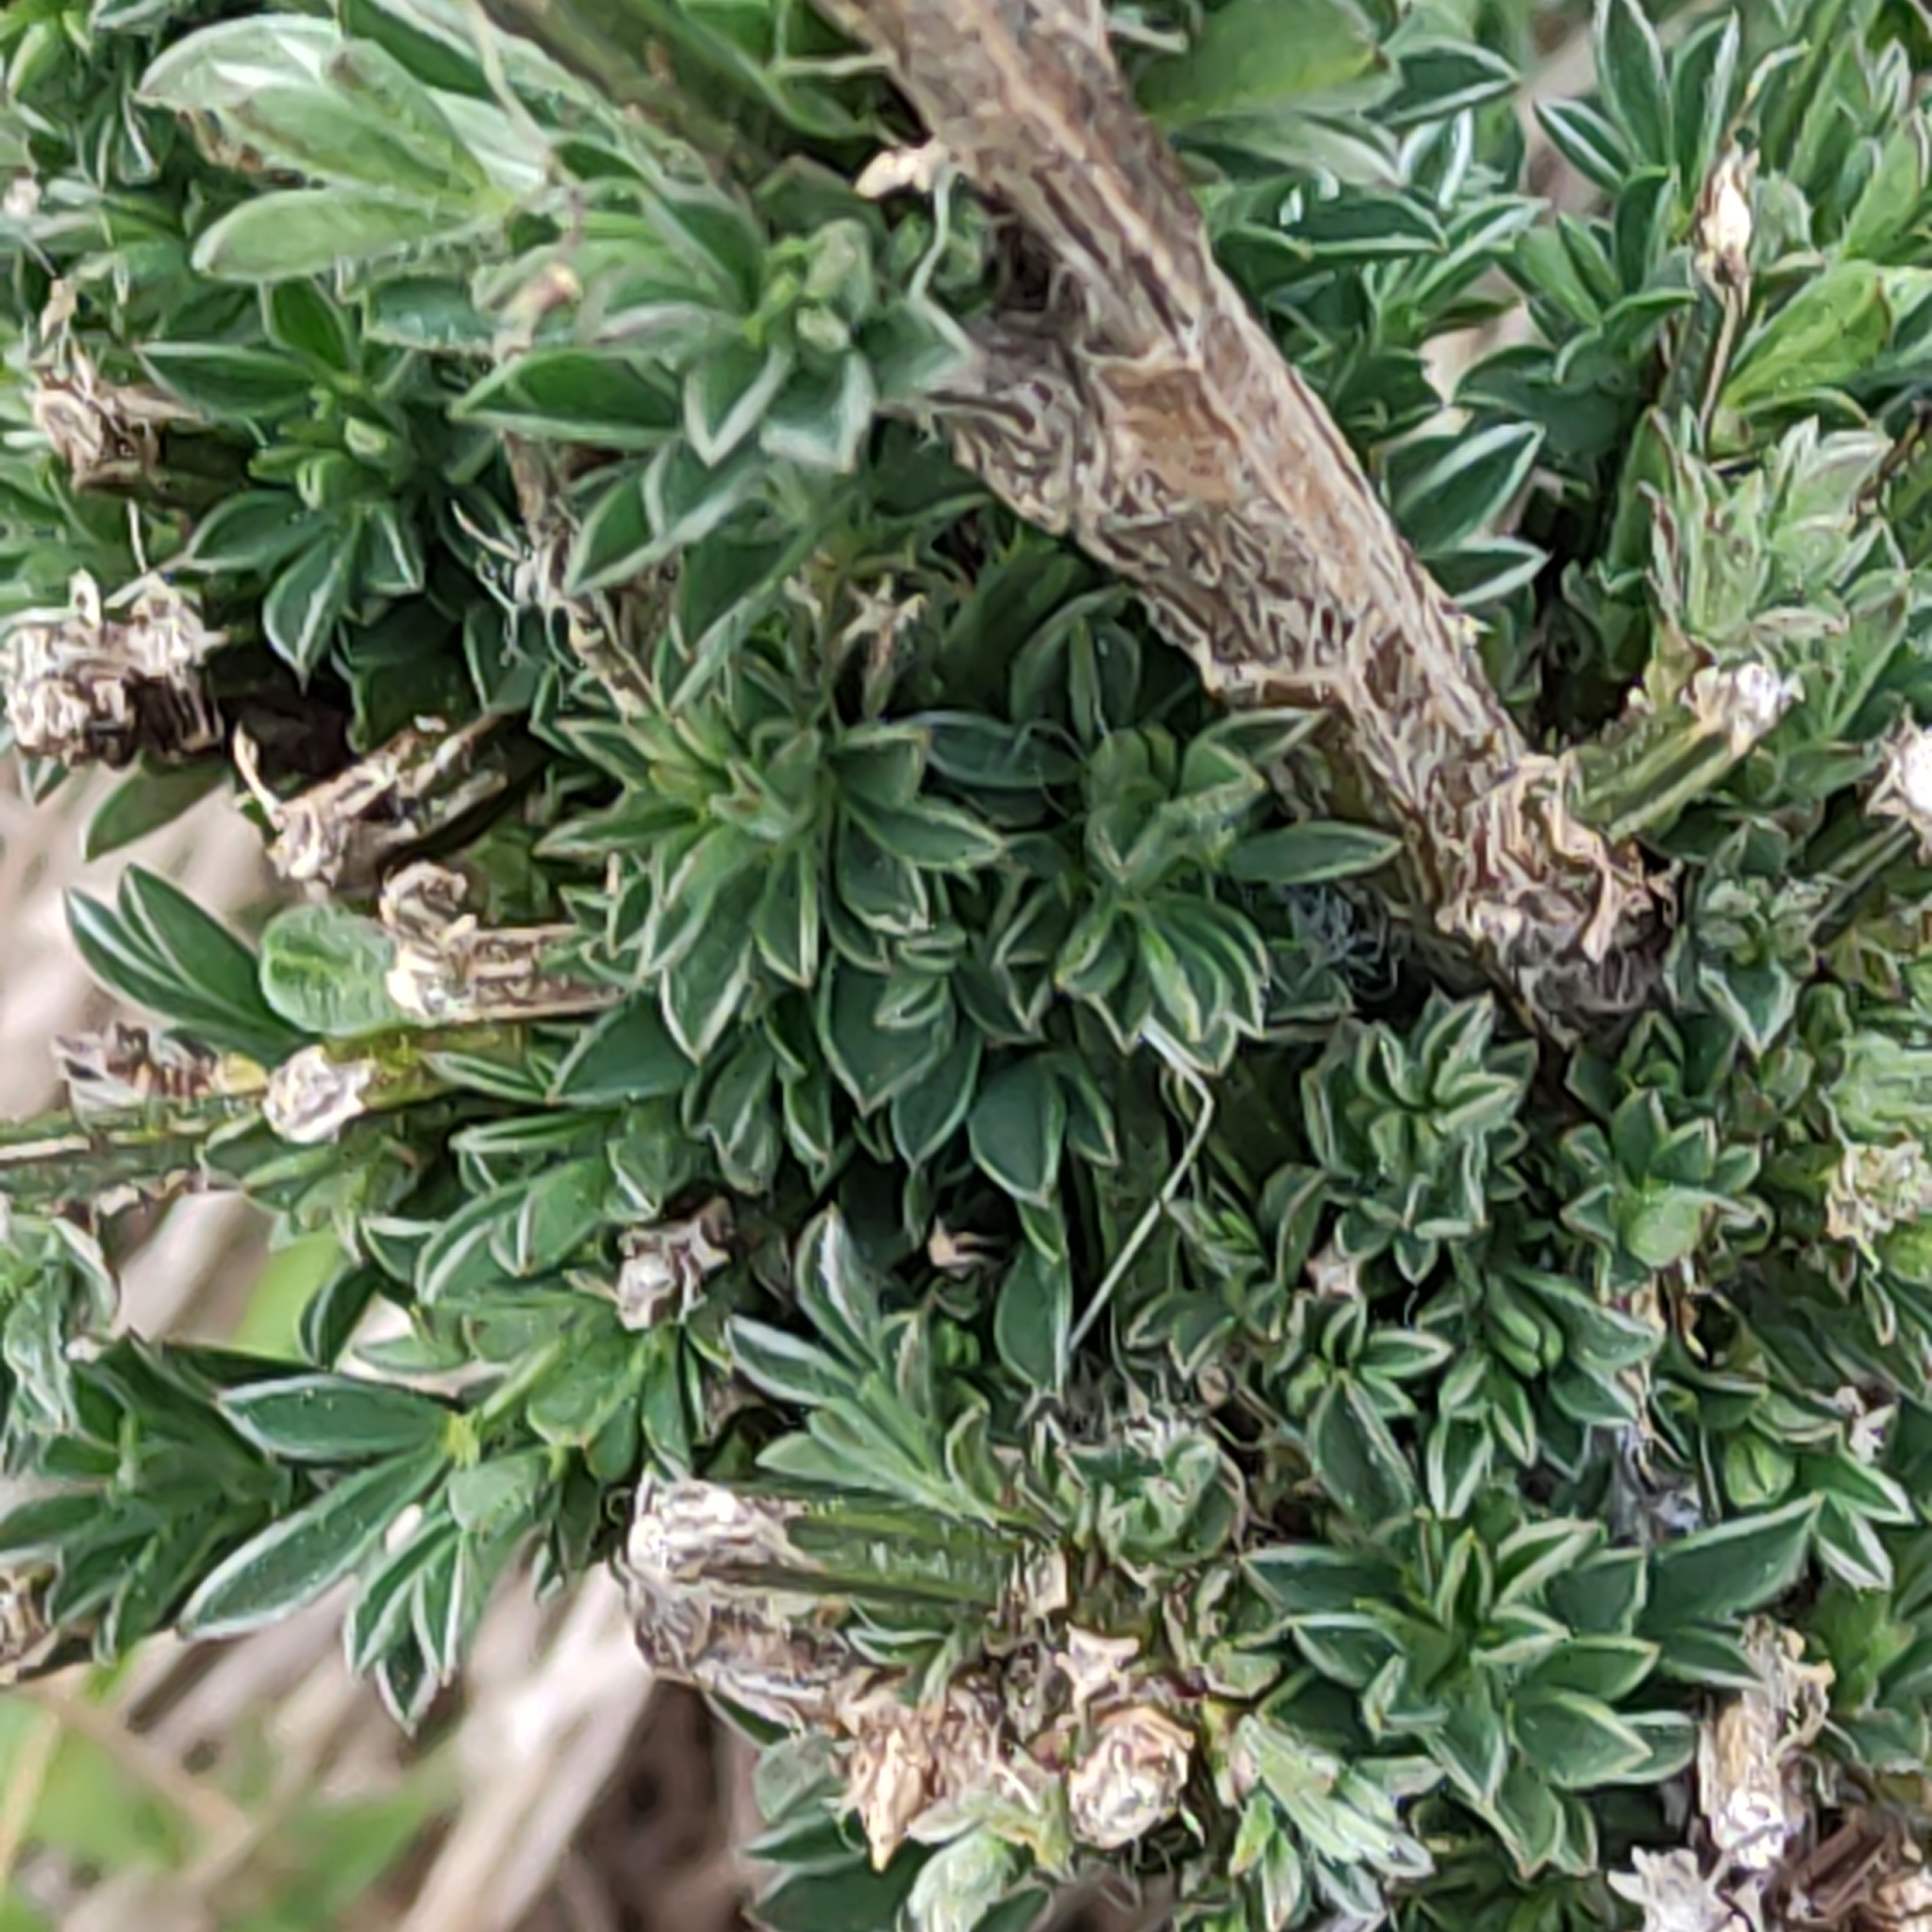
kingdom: Plantae
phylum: Tracheophyta
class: Magnoliopsida
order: Fabales
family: Fabaceae
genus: Cytisus
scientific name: Cytisus scoparius
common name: Scotch broom
